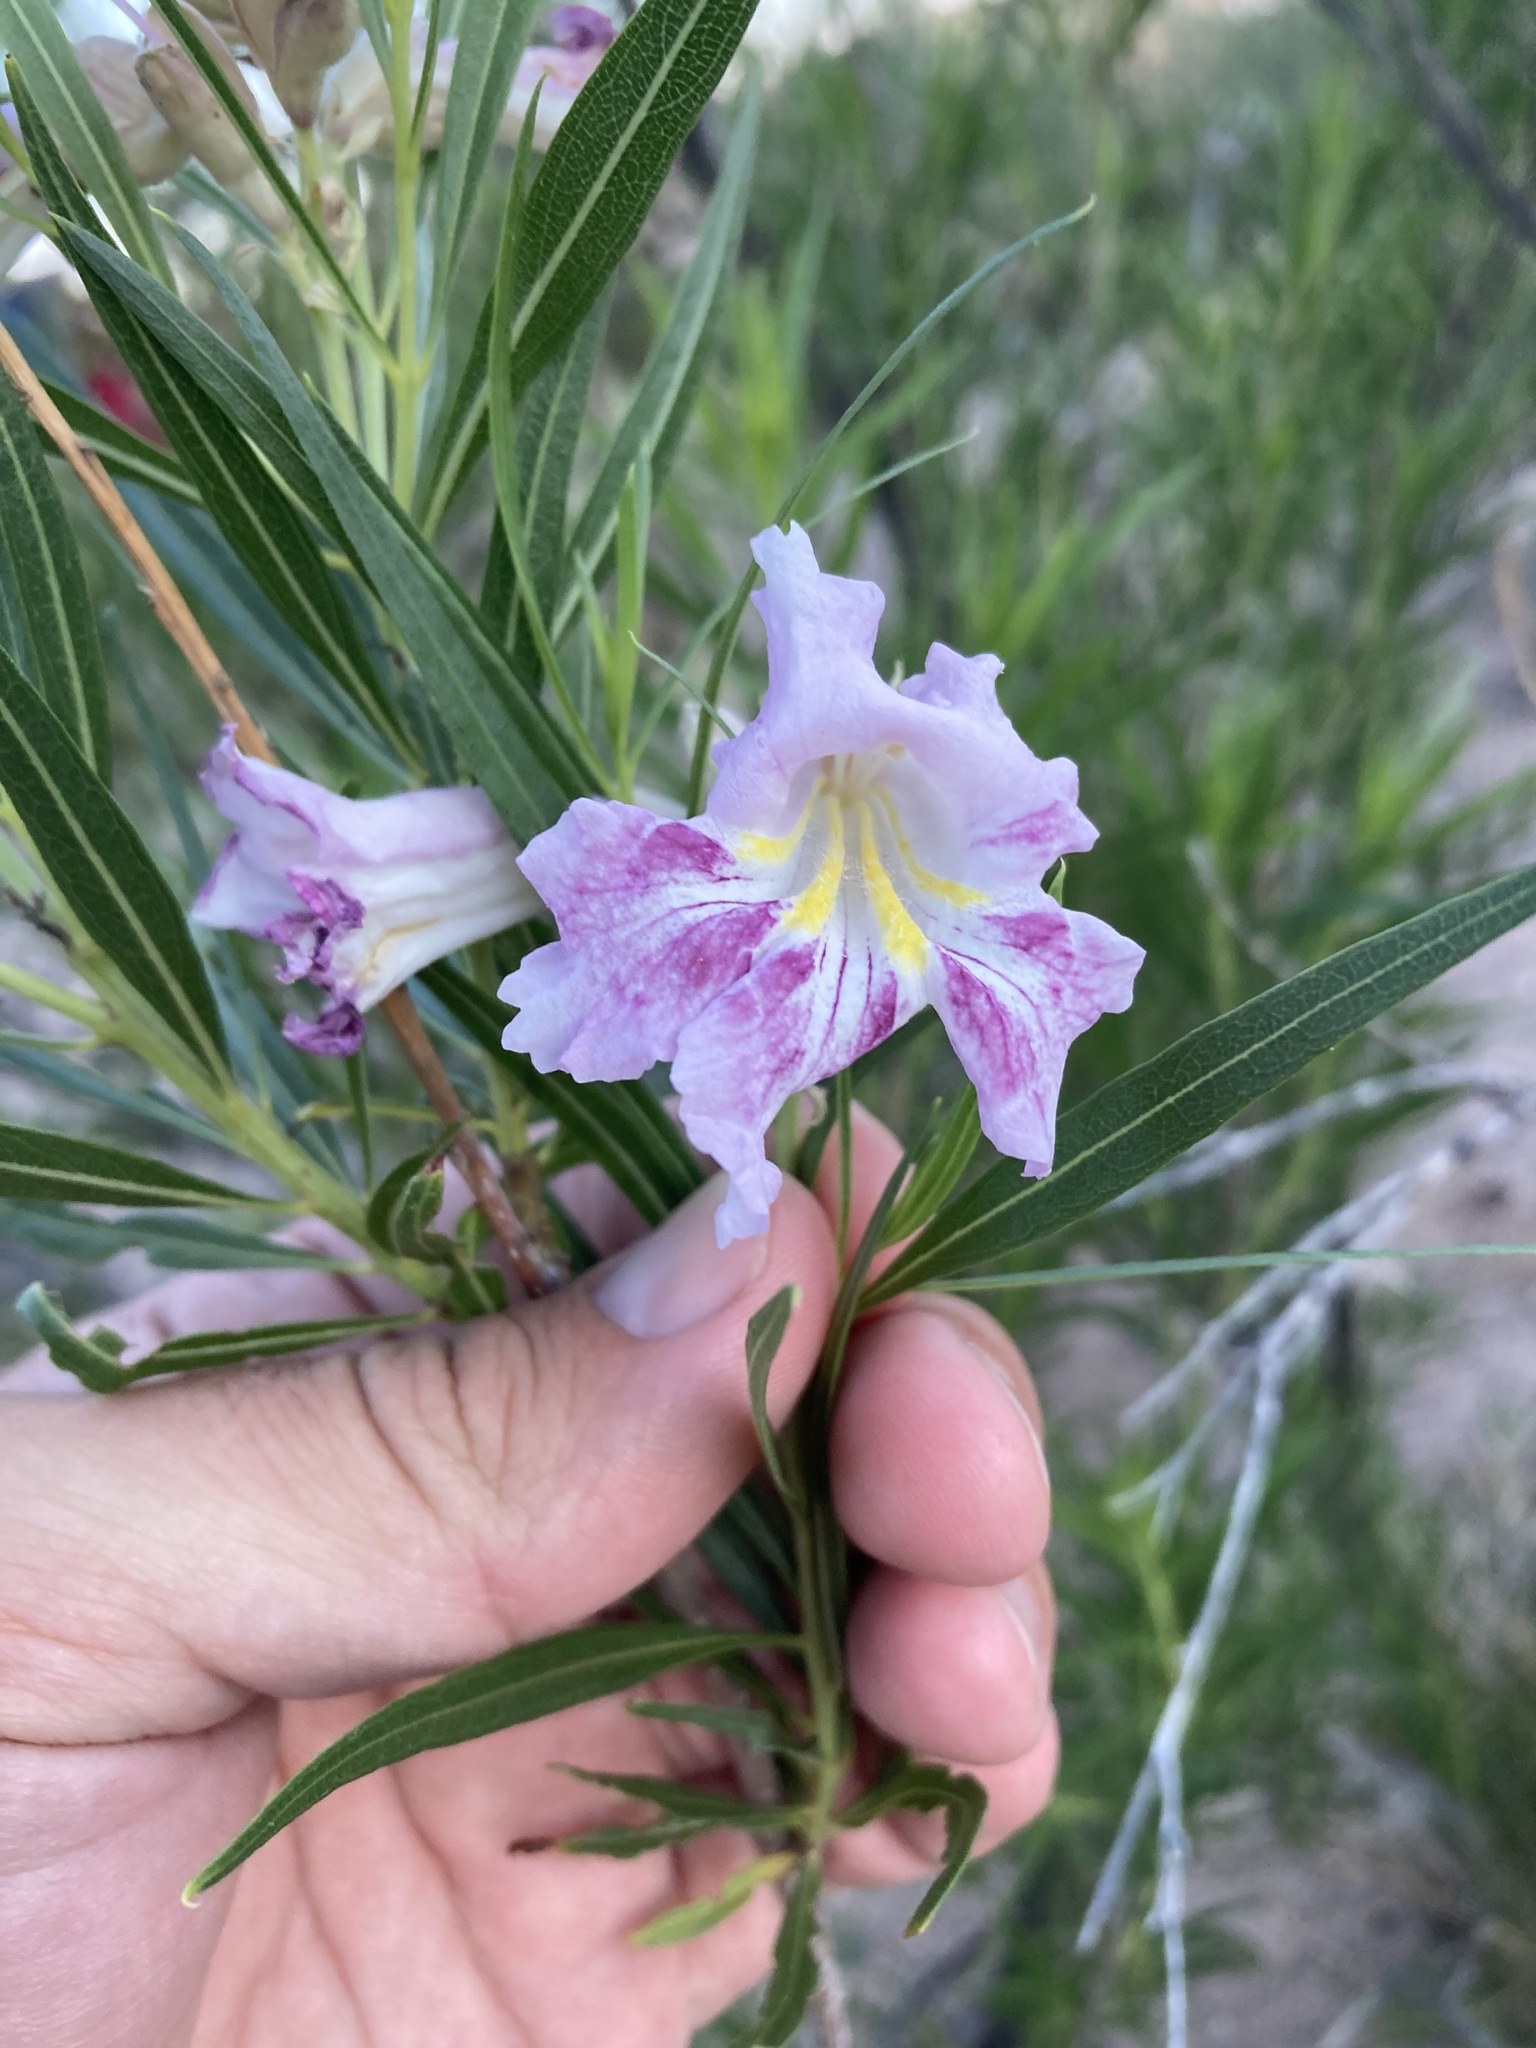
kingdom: Plantae
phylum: Tracheophyta
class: Magnoliopsida
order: Lamiales
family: Bignoniaceae
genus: Chilopsis
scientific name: Chilopsis linearis
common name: Desert-willow
